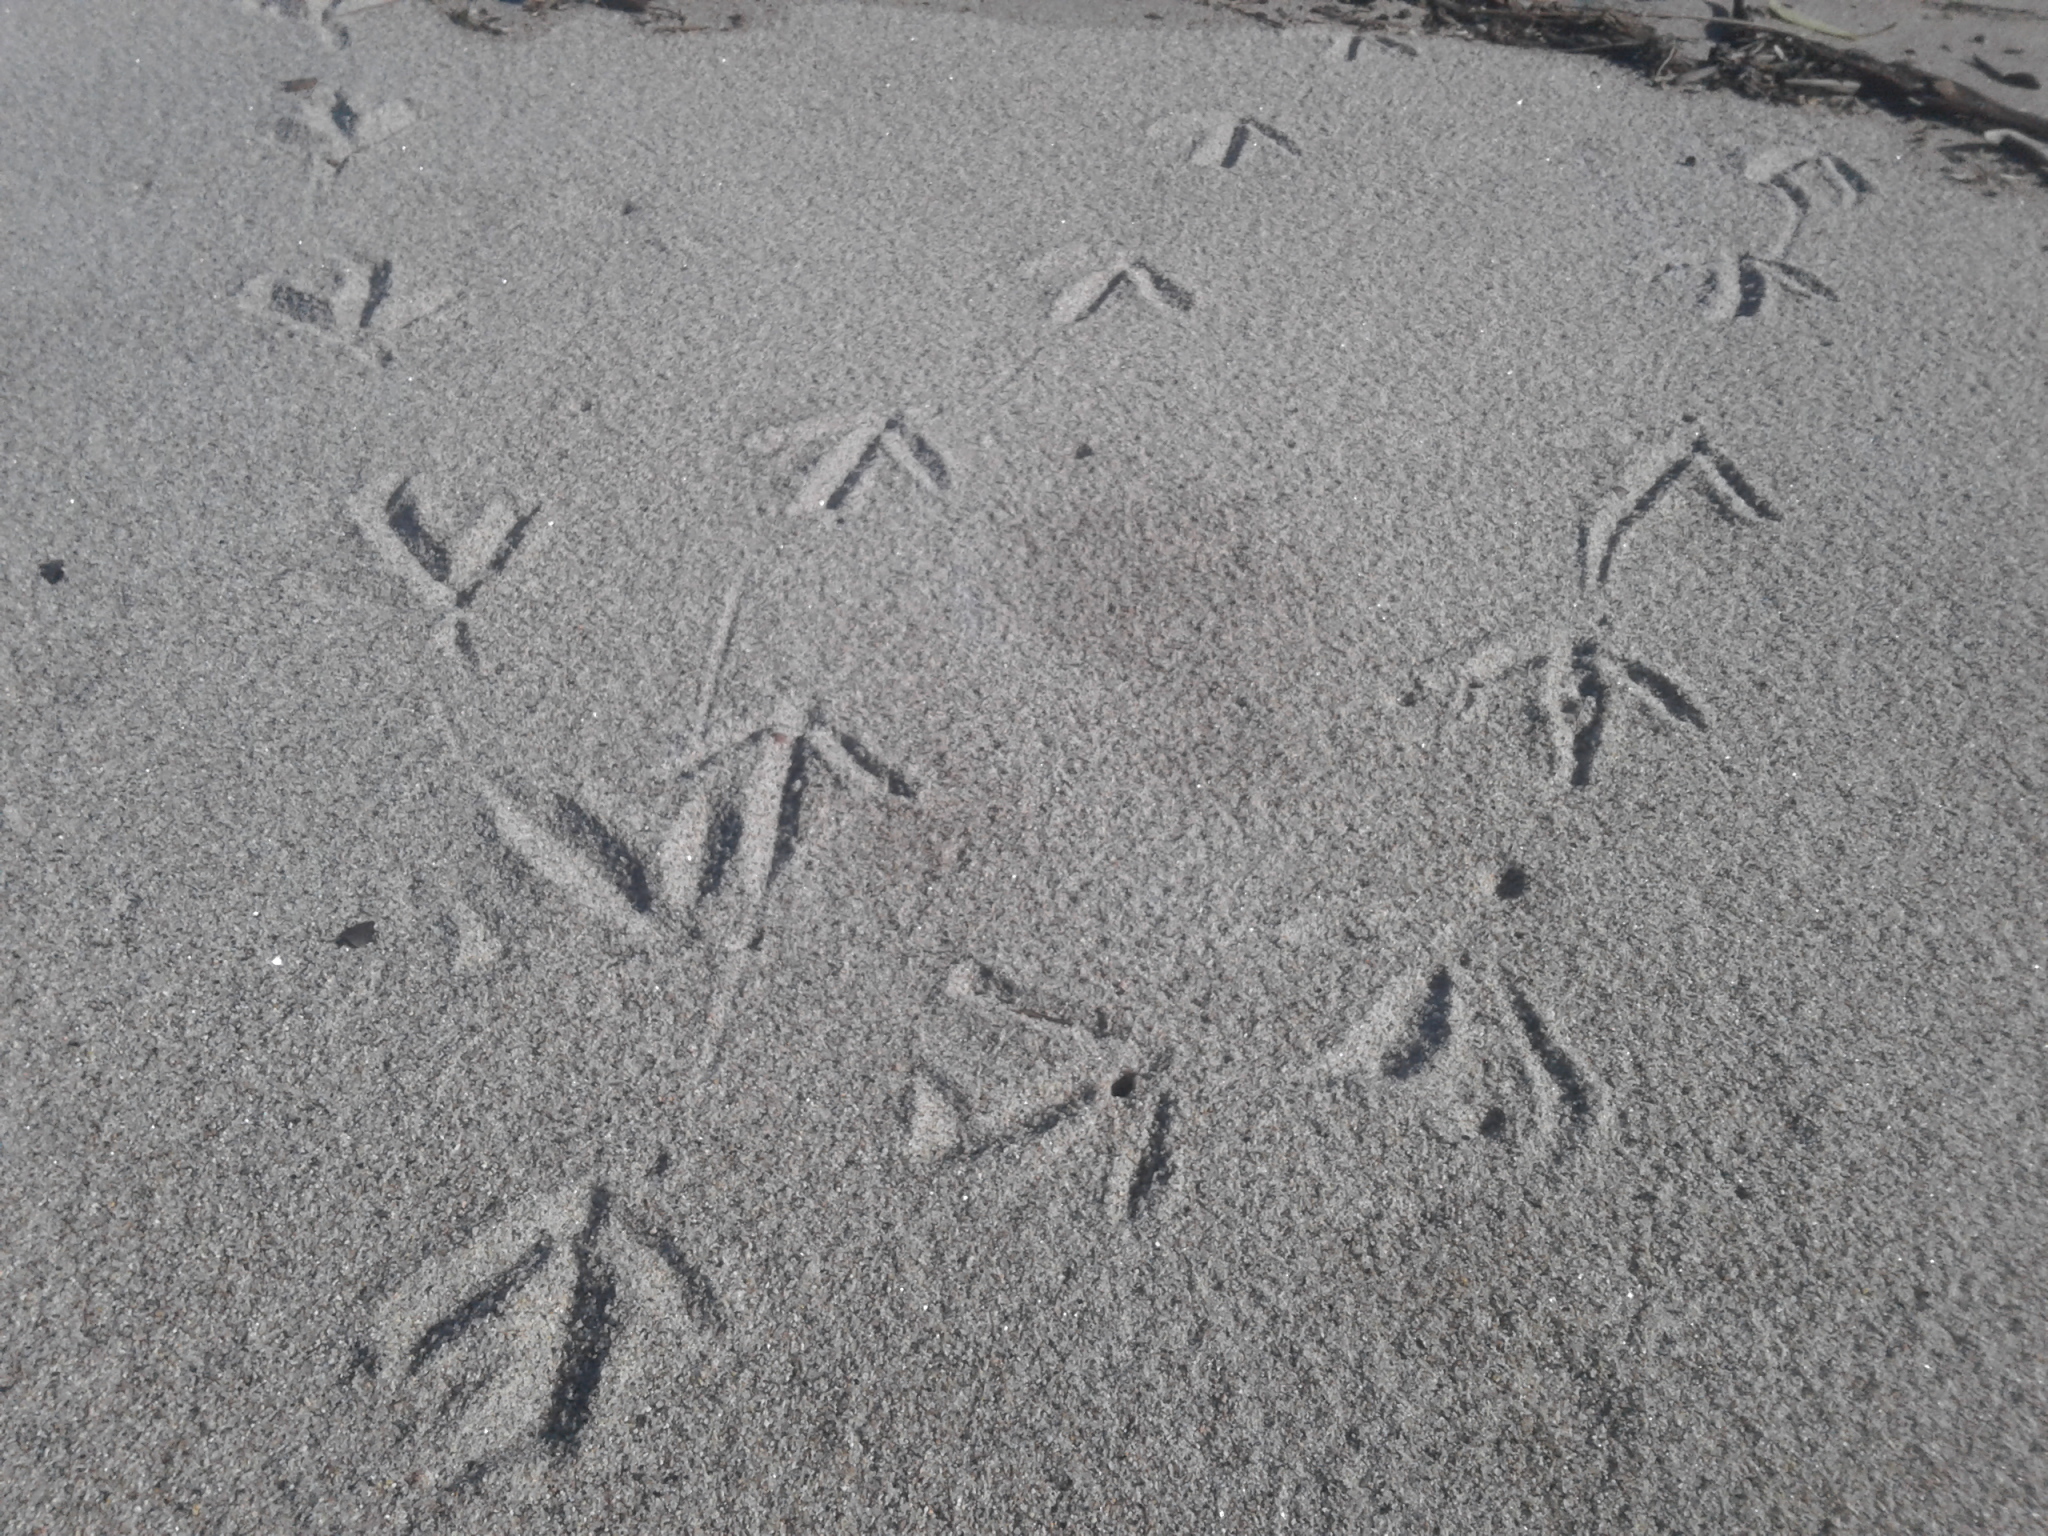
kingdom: Animalia
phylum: Chordata
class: Aves
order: Passeriformes
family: Motacillidae
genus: Anthus
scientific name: Anthus novaeseelandiae
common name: New zealand pipit
